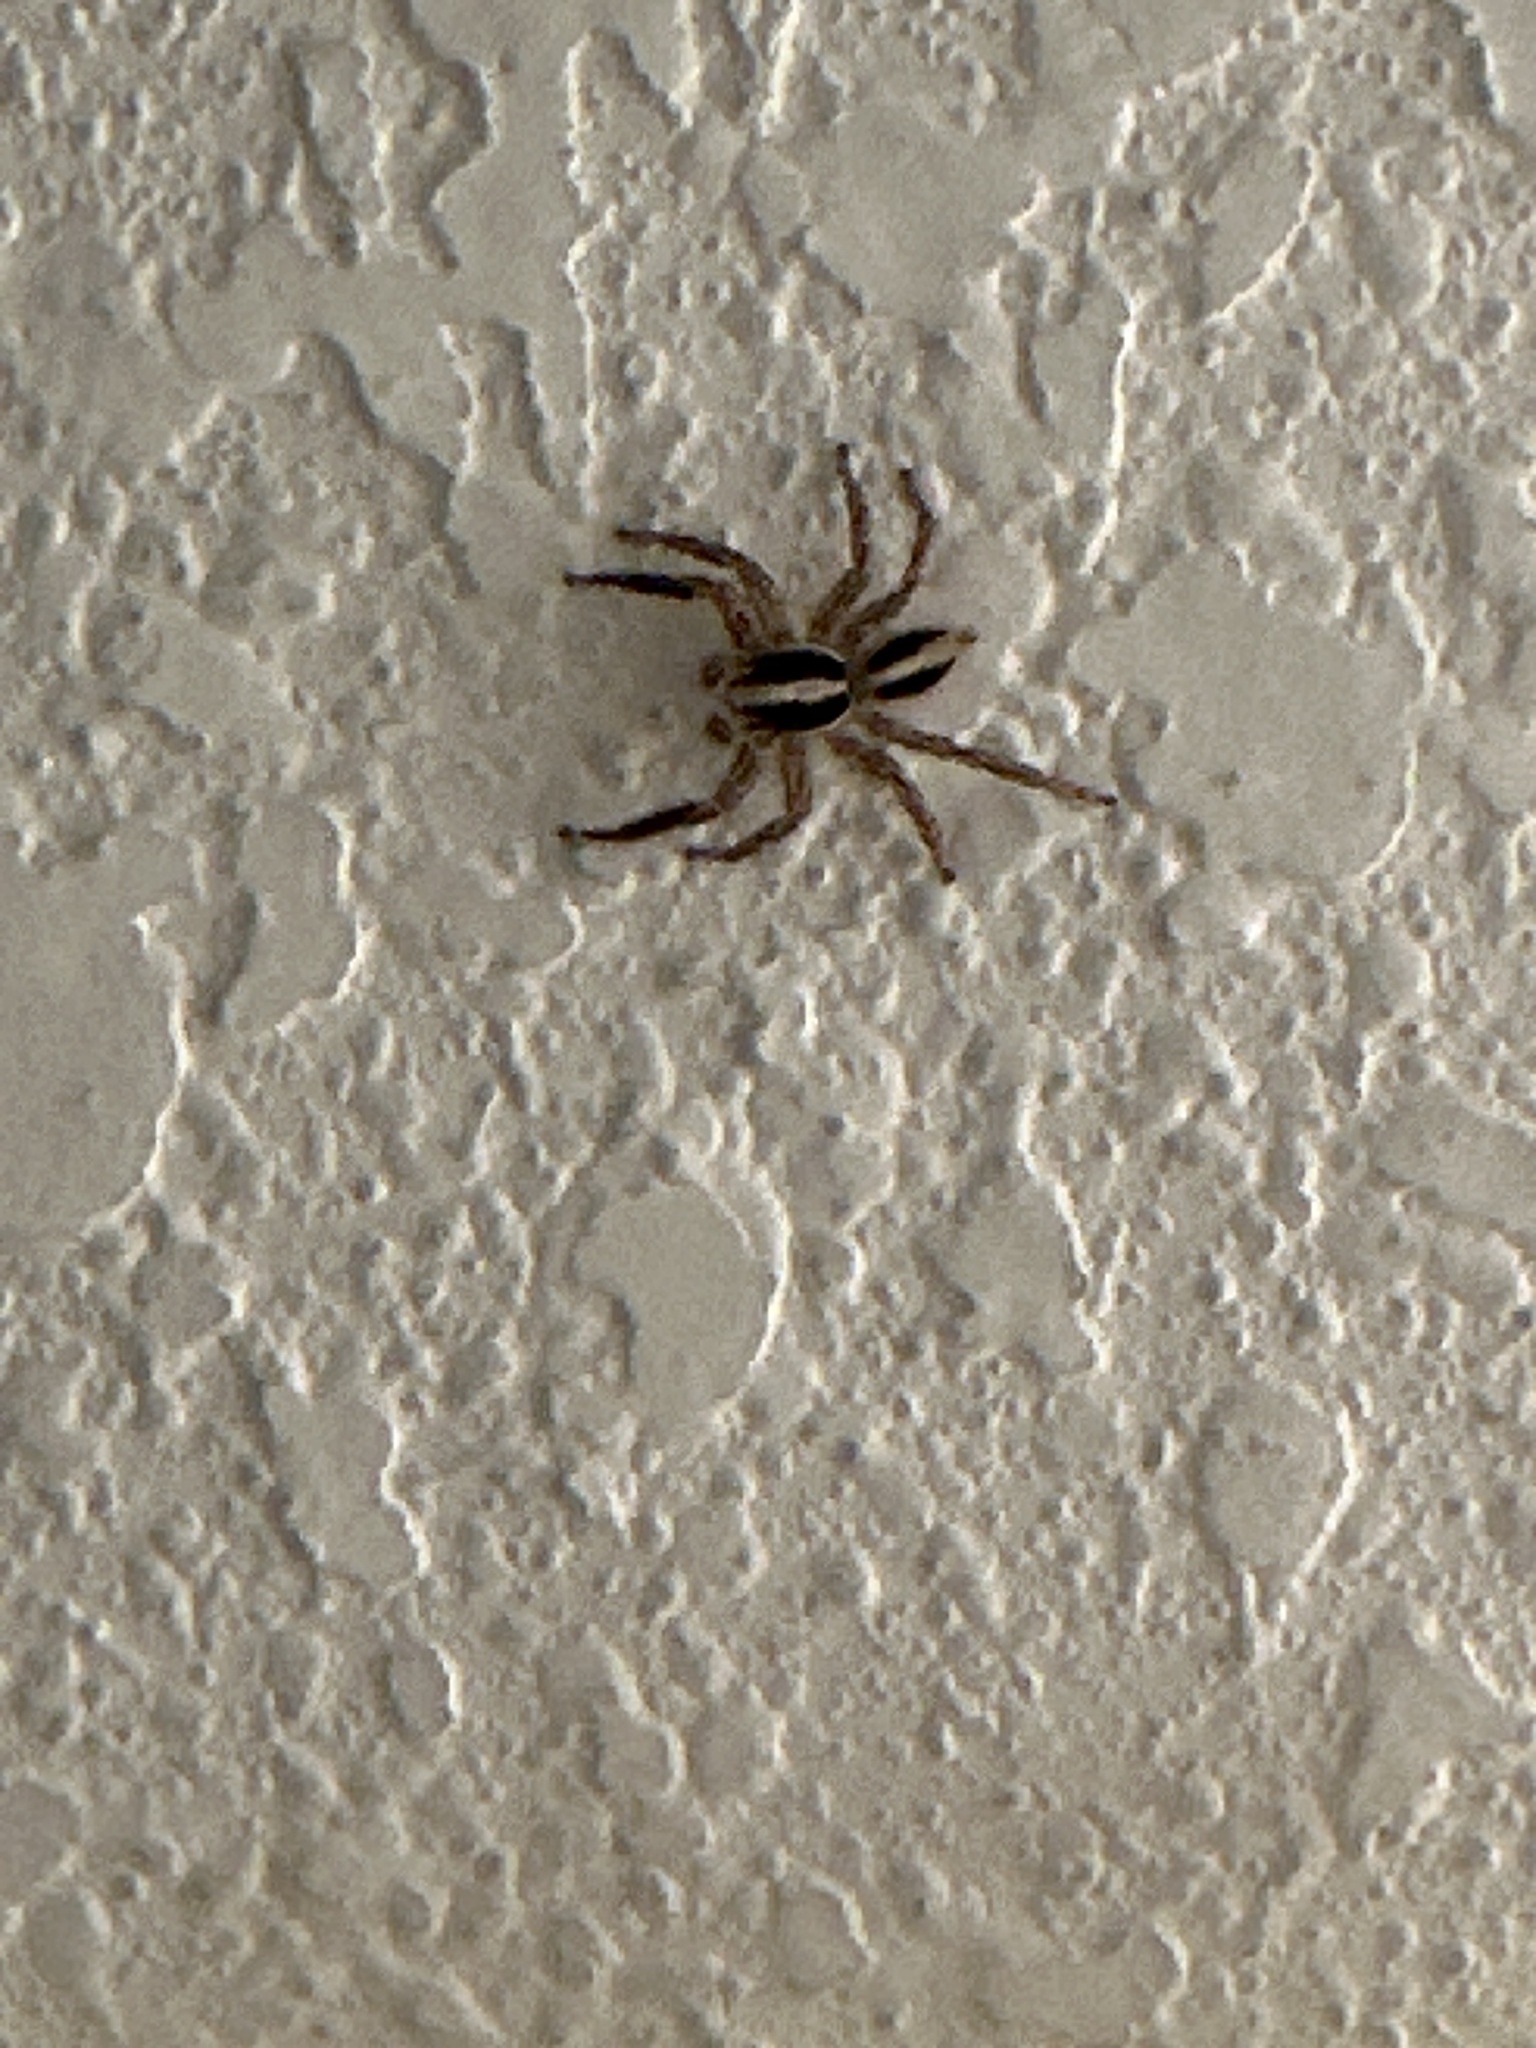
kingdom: Animalia
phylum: Arthropoda
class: Arachnida
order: Araneae
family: Salticidae
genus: Plexippus
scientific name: Plexippus paykulli
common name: Pantropical jumper
